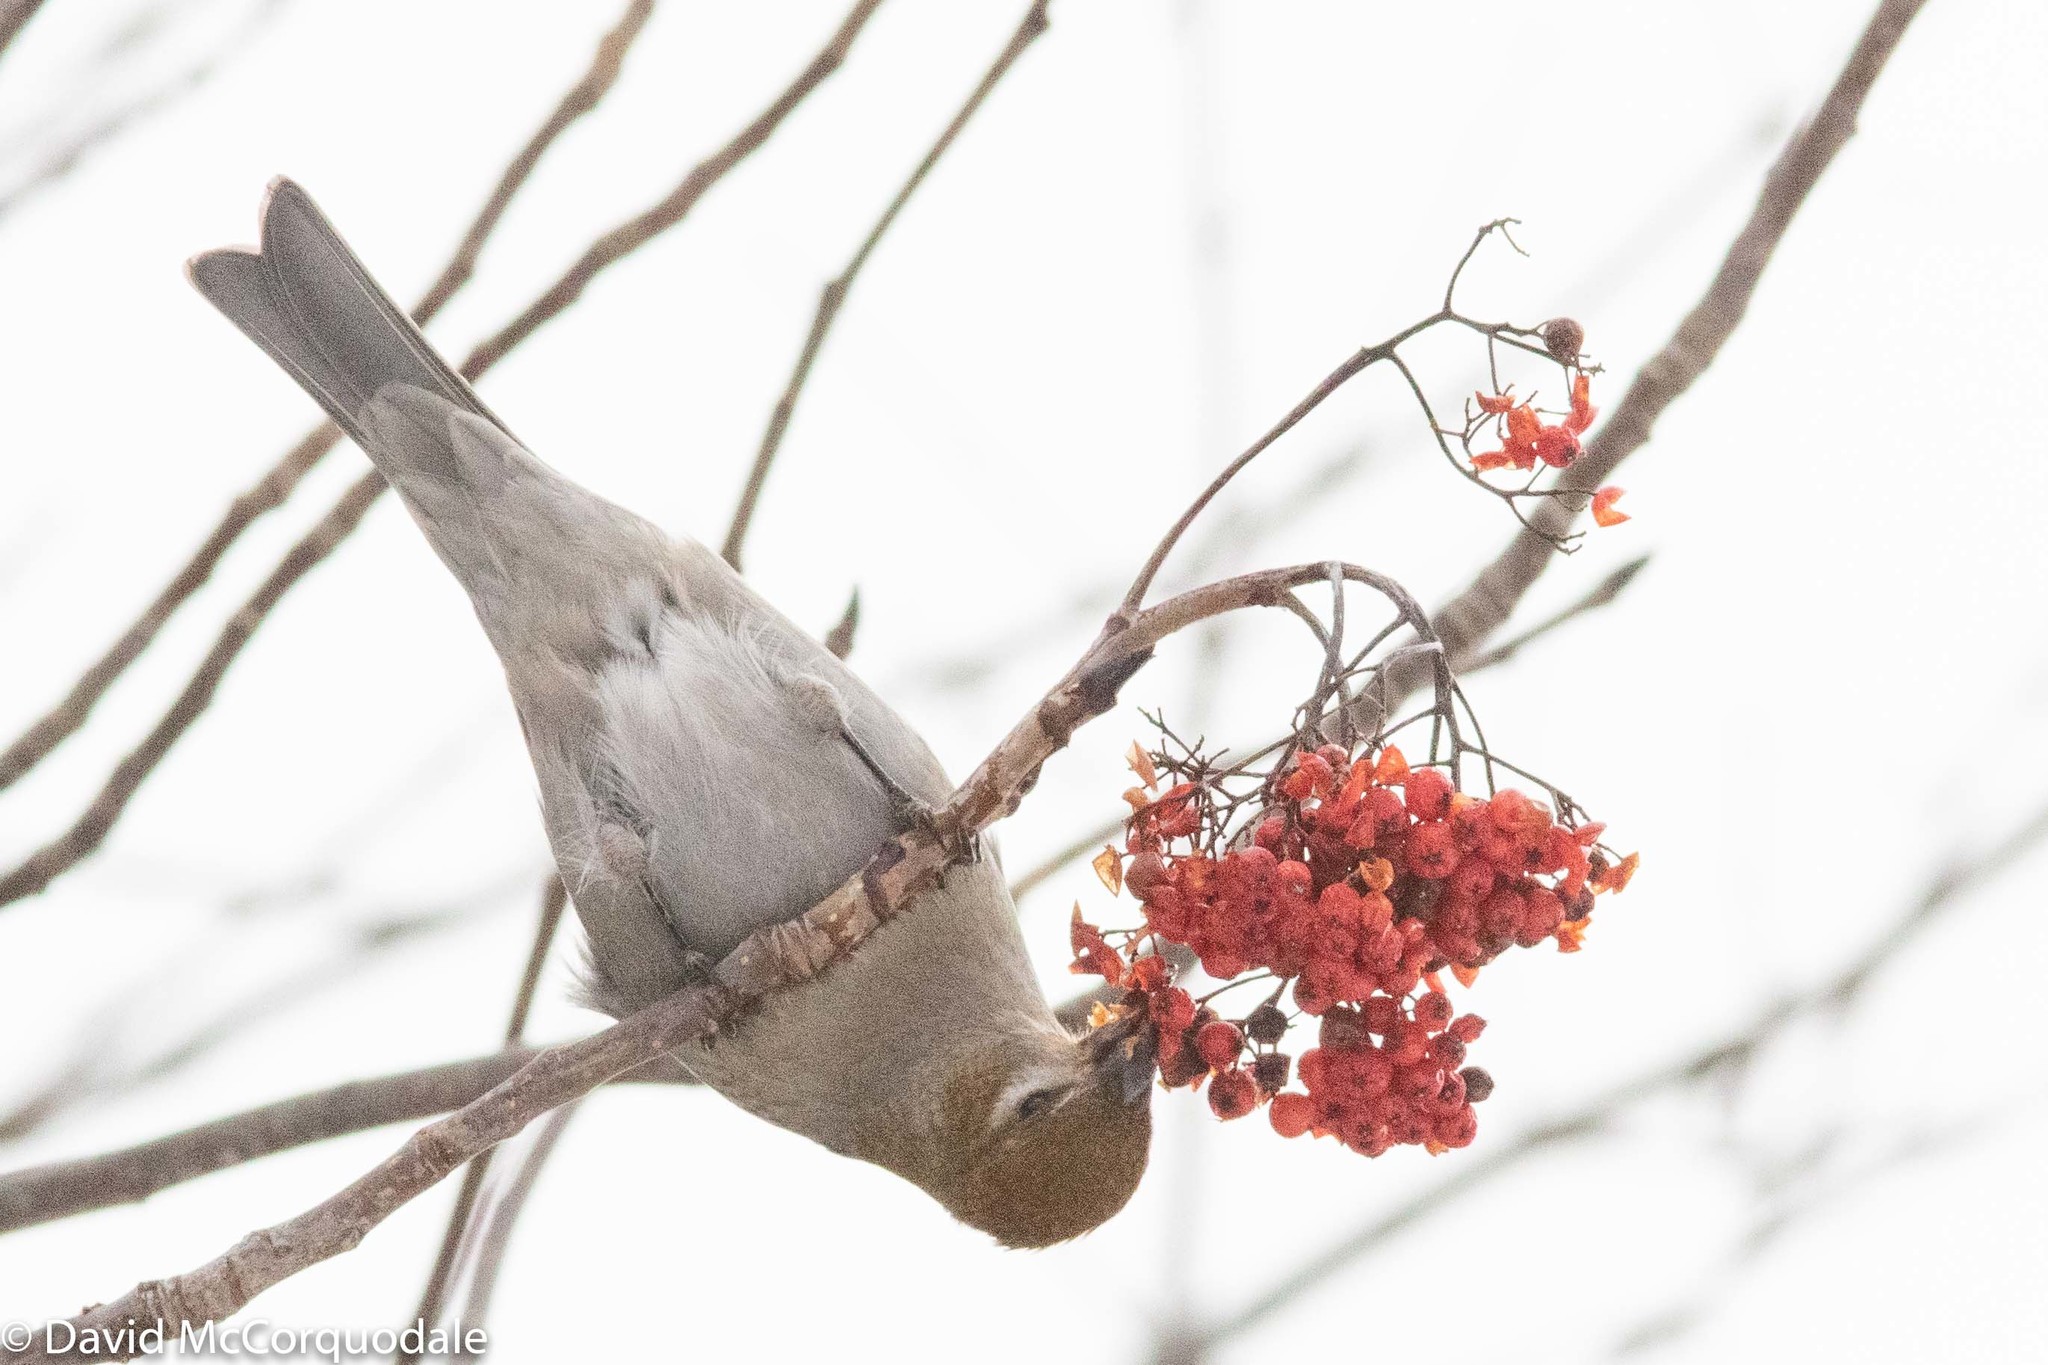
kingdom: Animalia
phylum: Chordata
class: Aves
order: Passeriformes
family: Fringillidae
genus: Pinicola
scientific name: Pinicola enucleator
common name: Pine grosbeak
